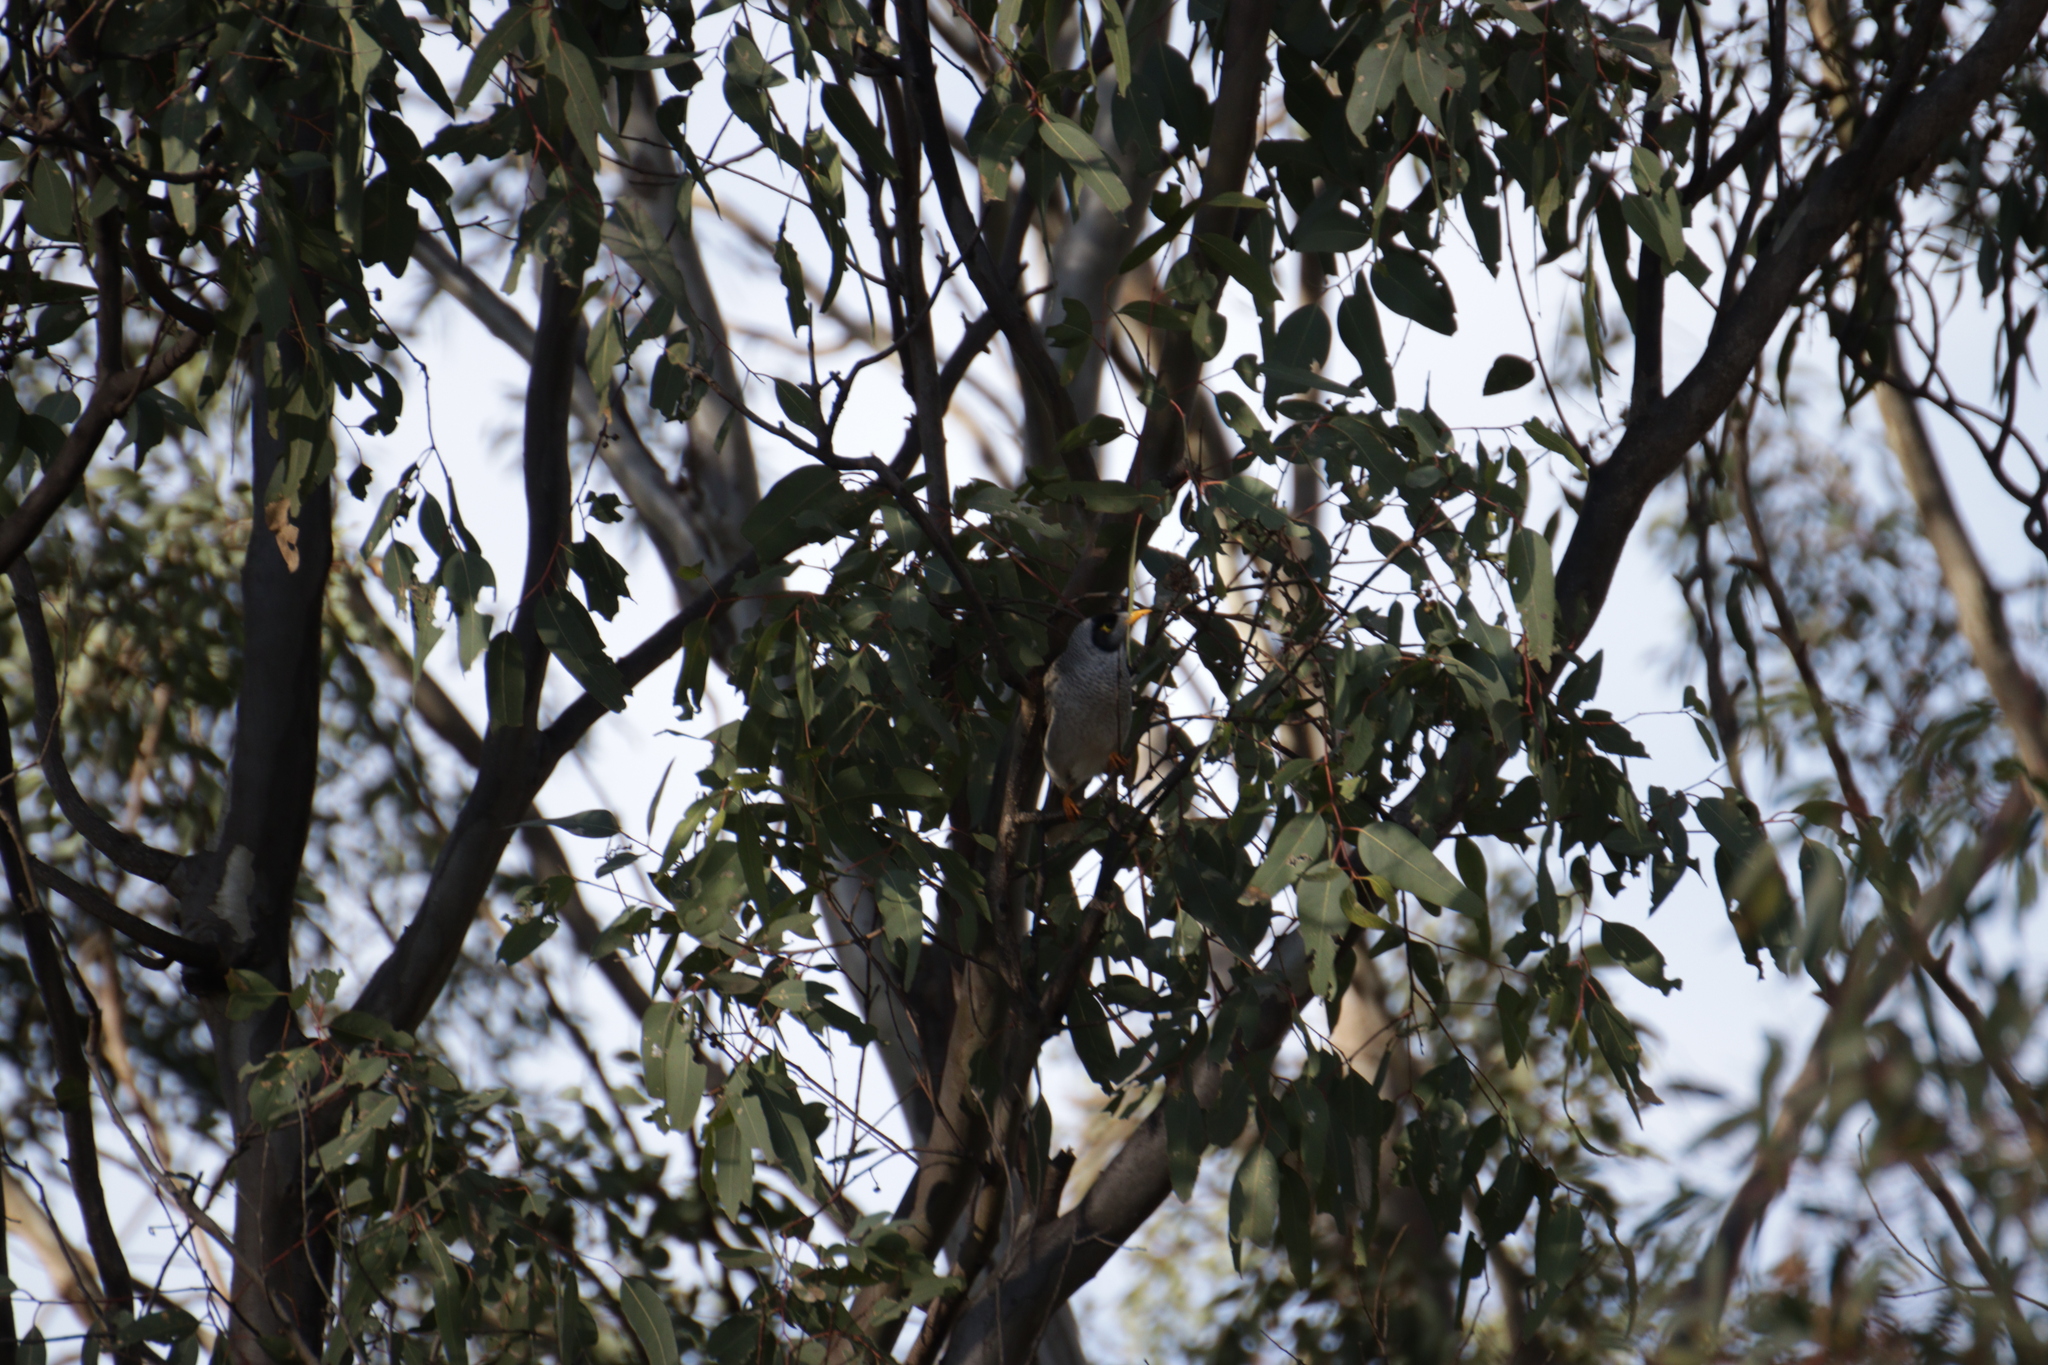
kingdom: Animalia
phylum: Chordata
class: Aves
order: Passeriformes
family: Meliphagidae
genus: Manorina
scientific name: Manorina melanocephala
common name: Noisy miner
